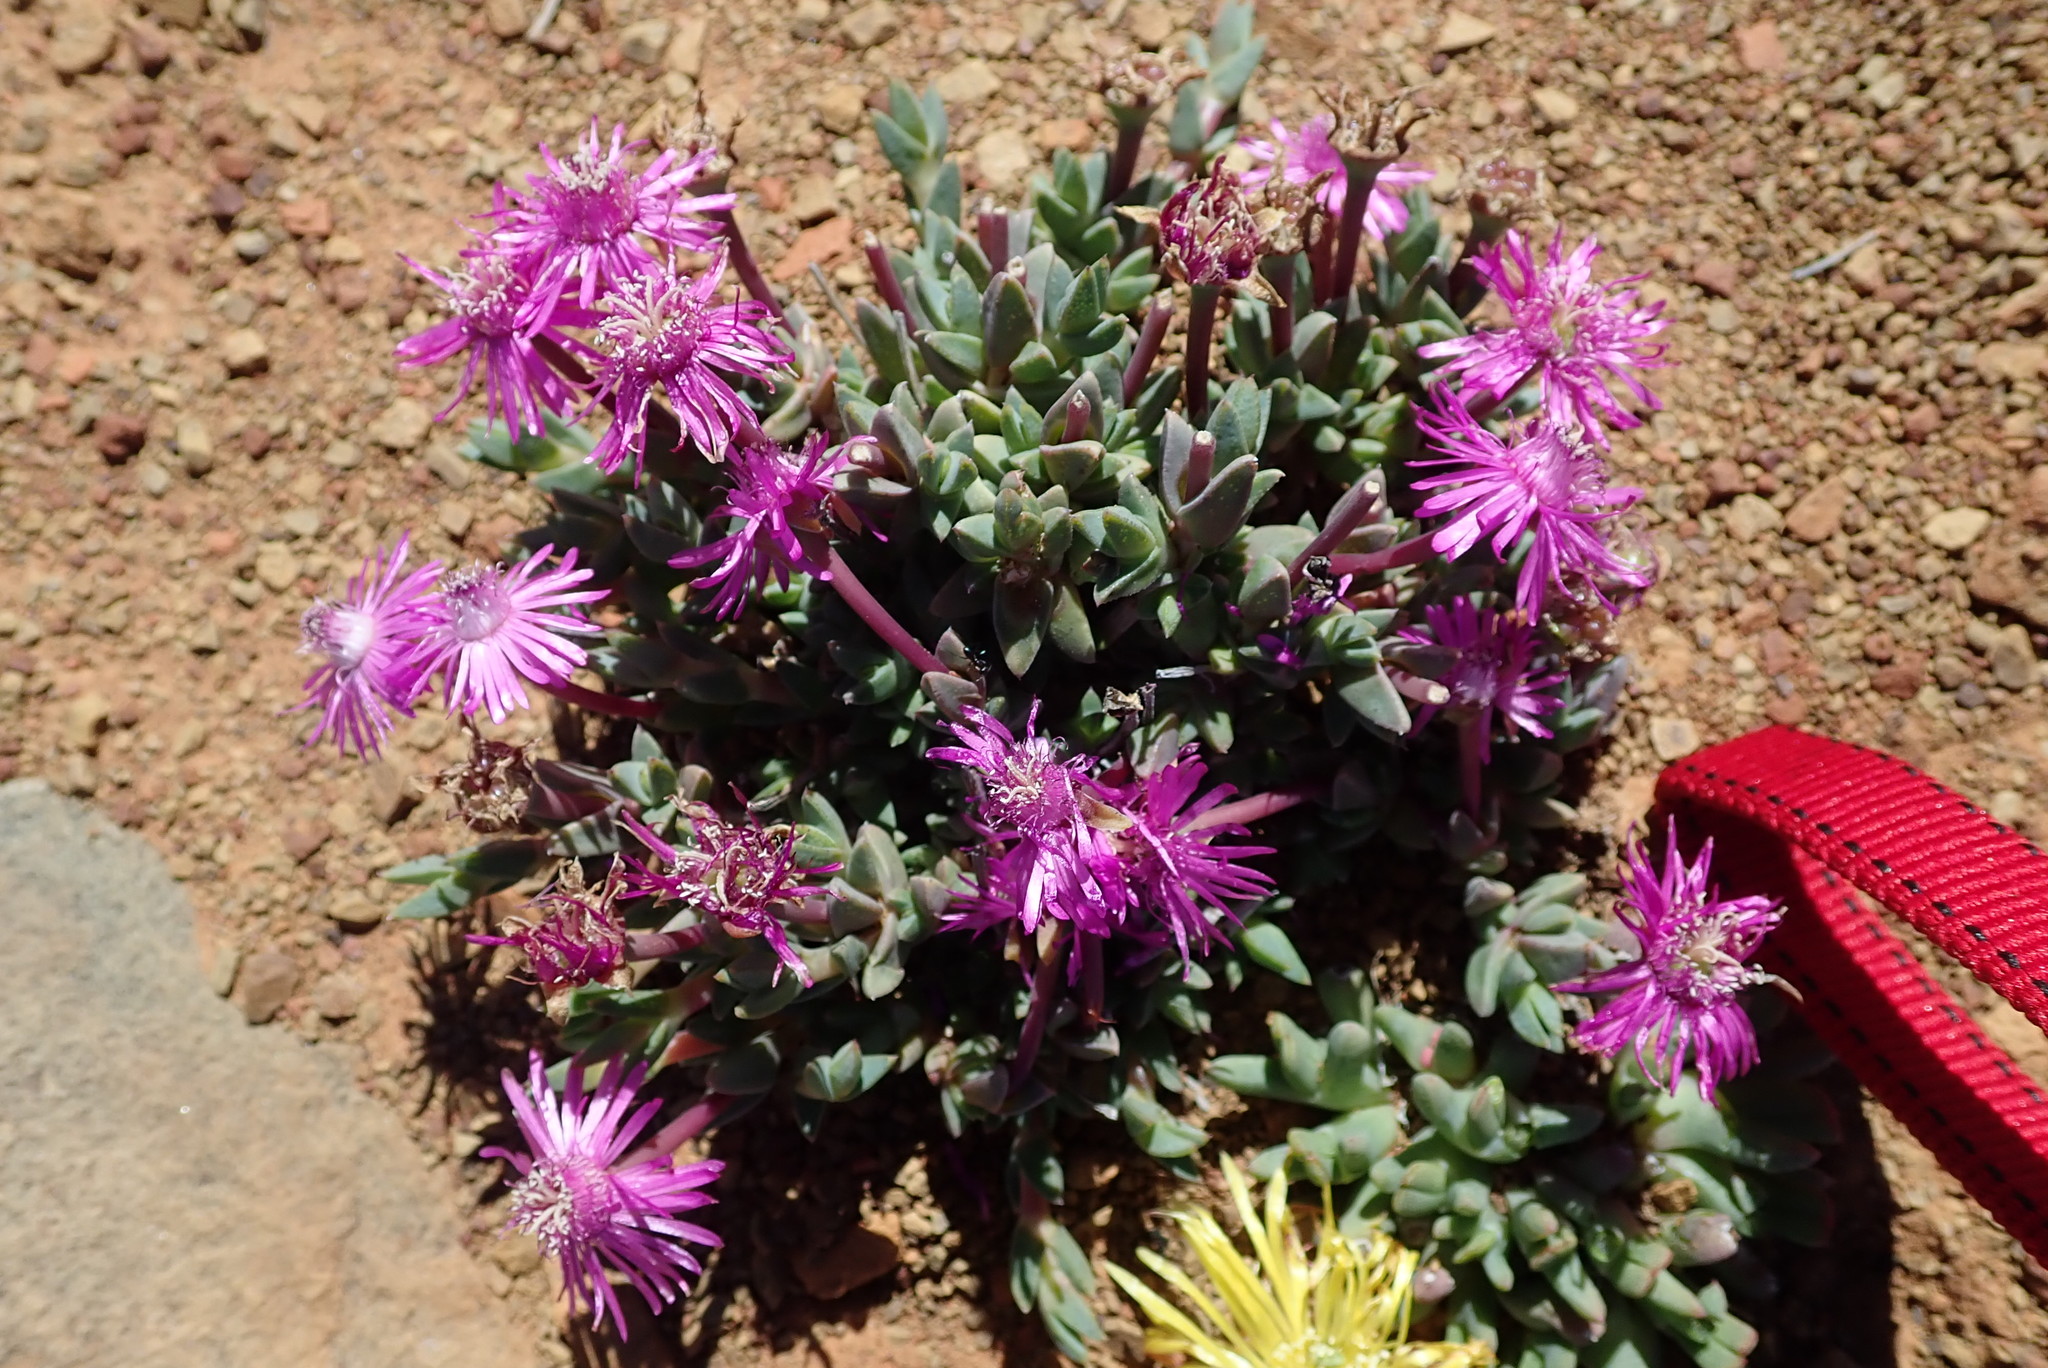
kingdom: Plantae
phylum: Tracheophyta
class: Magnoliopsida
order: Caryophyllales
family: Aizoaceae
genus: Antimima
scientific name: Antimima prolongata
